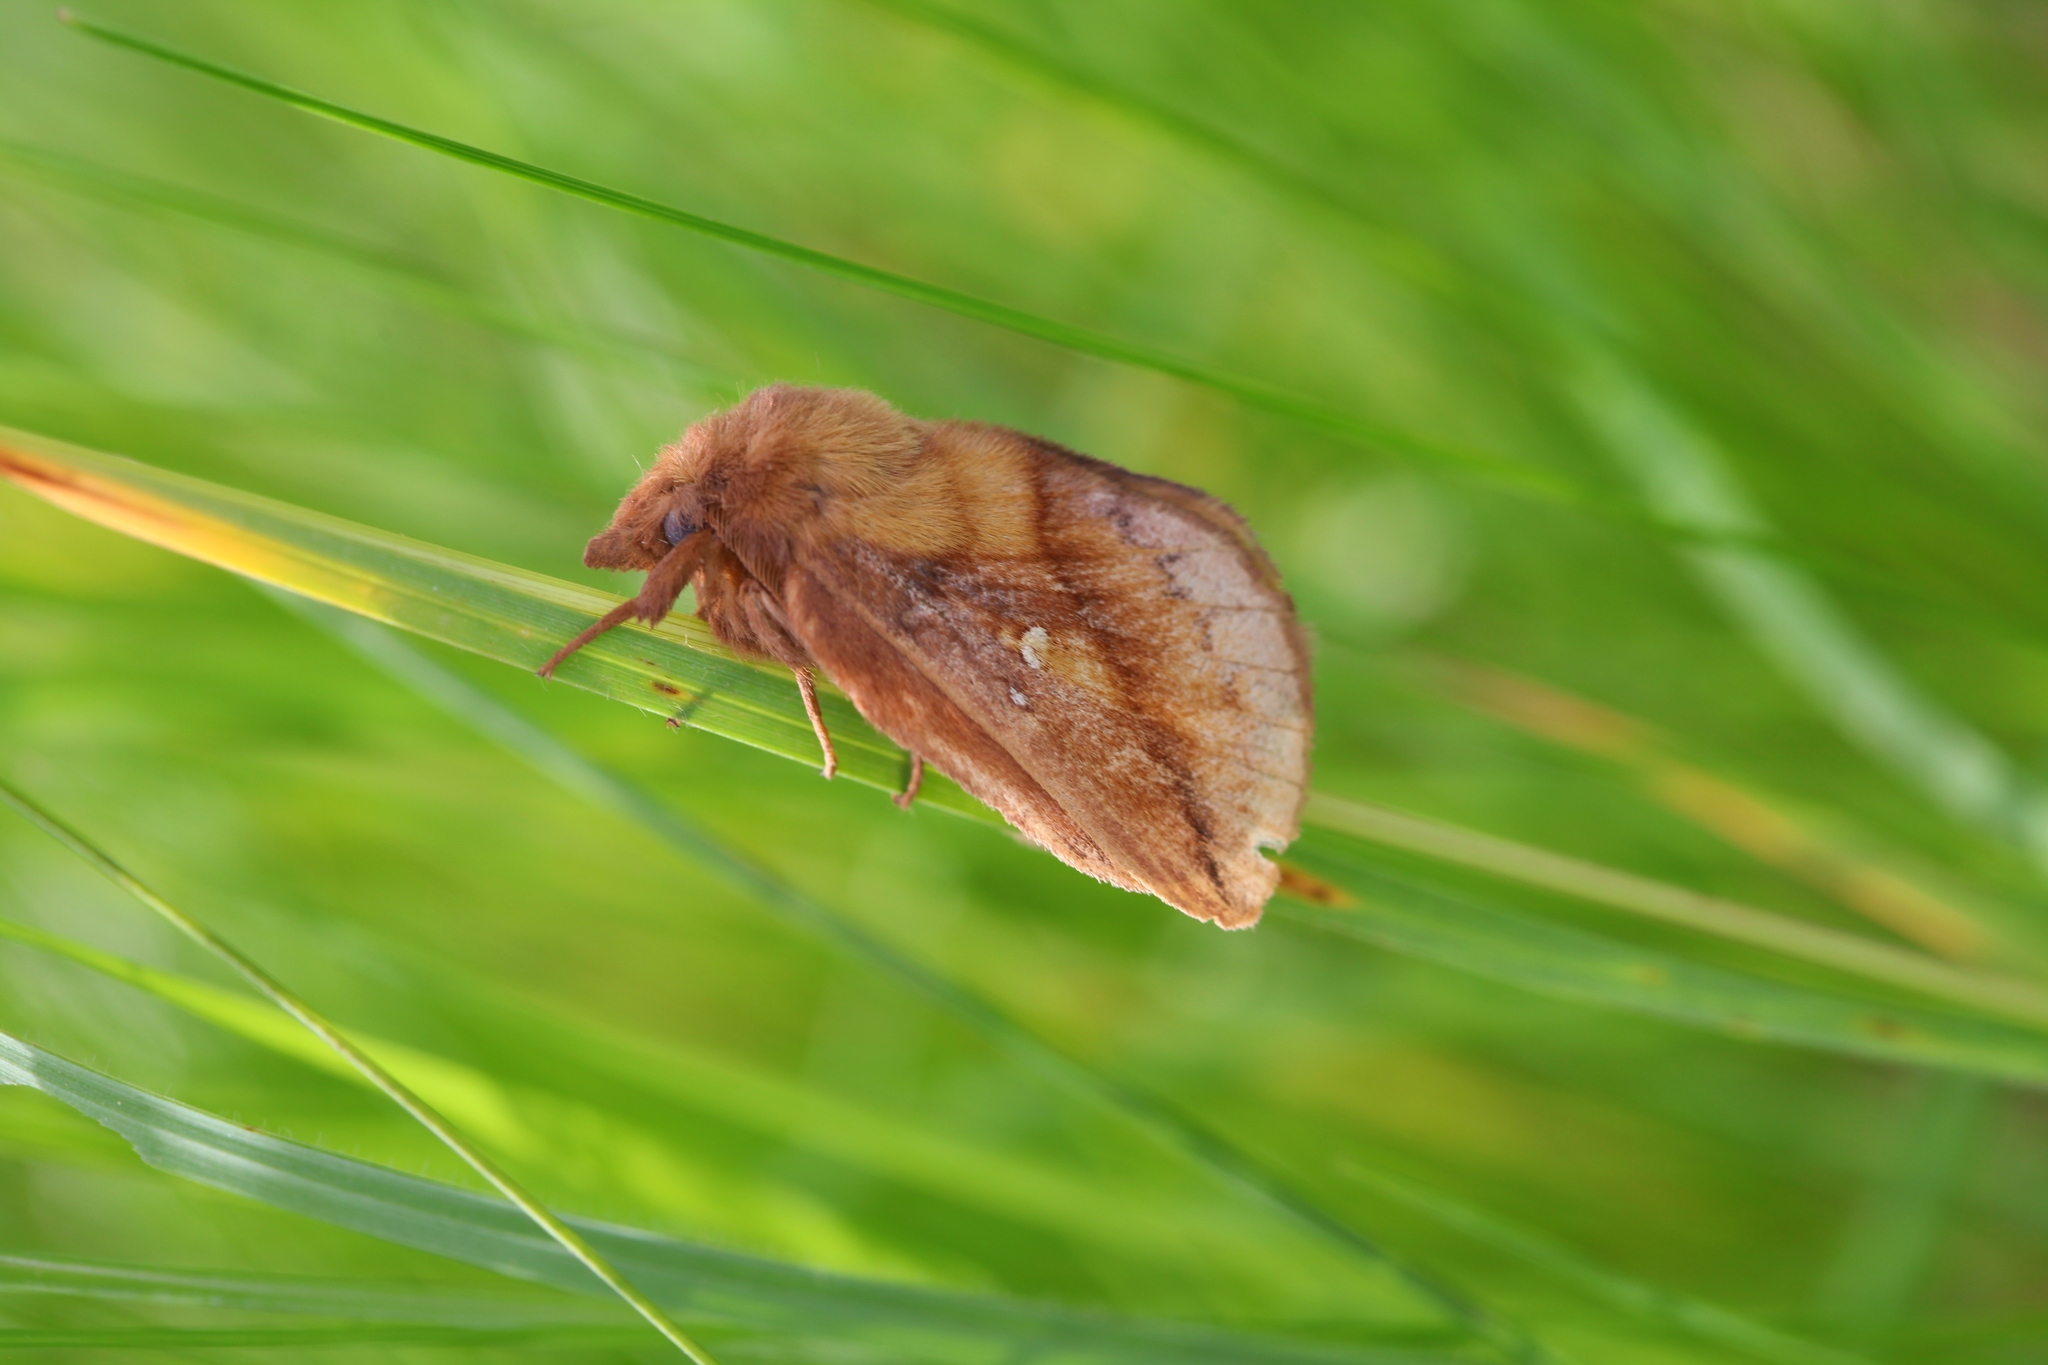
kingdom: Animalia
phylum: Arthropoda
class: Insecta
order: Lepidoptera
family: Lasiocampidae
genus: Euthrix
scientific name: Euthrix potatoria
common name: Drinker
